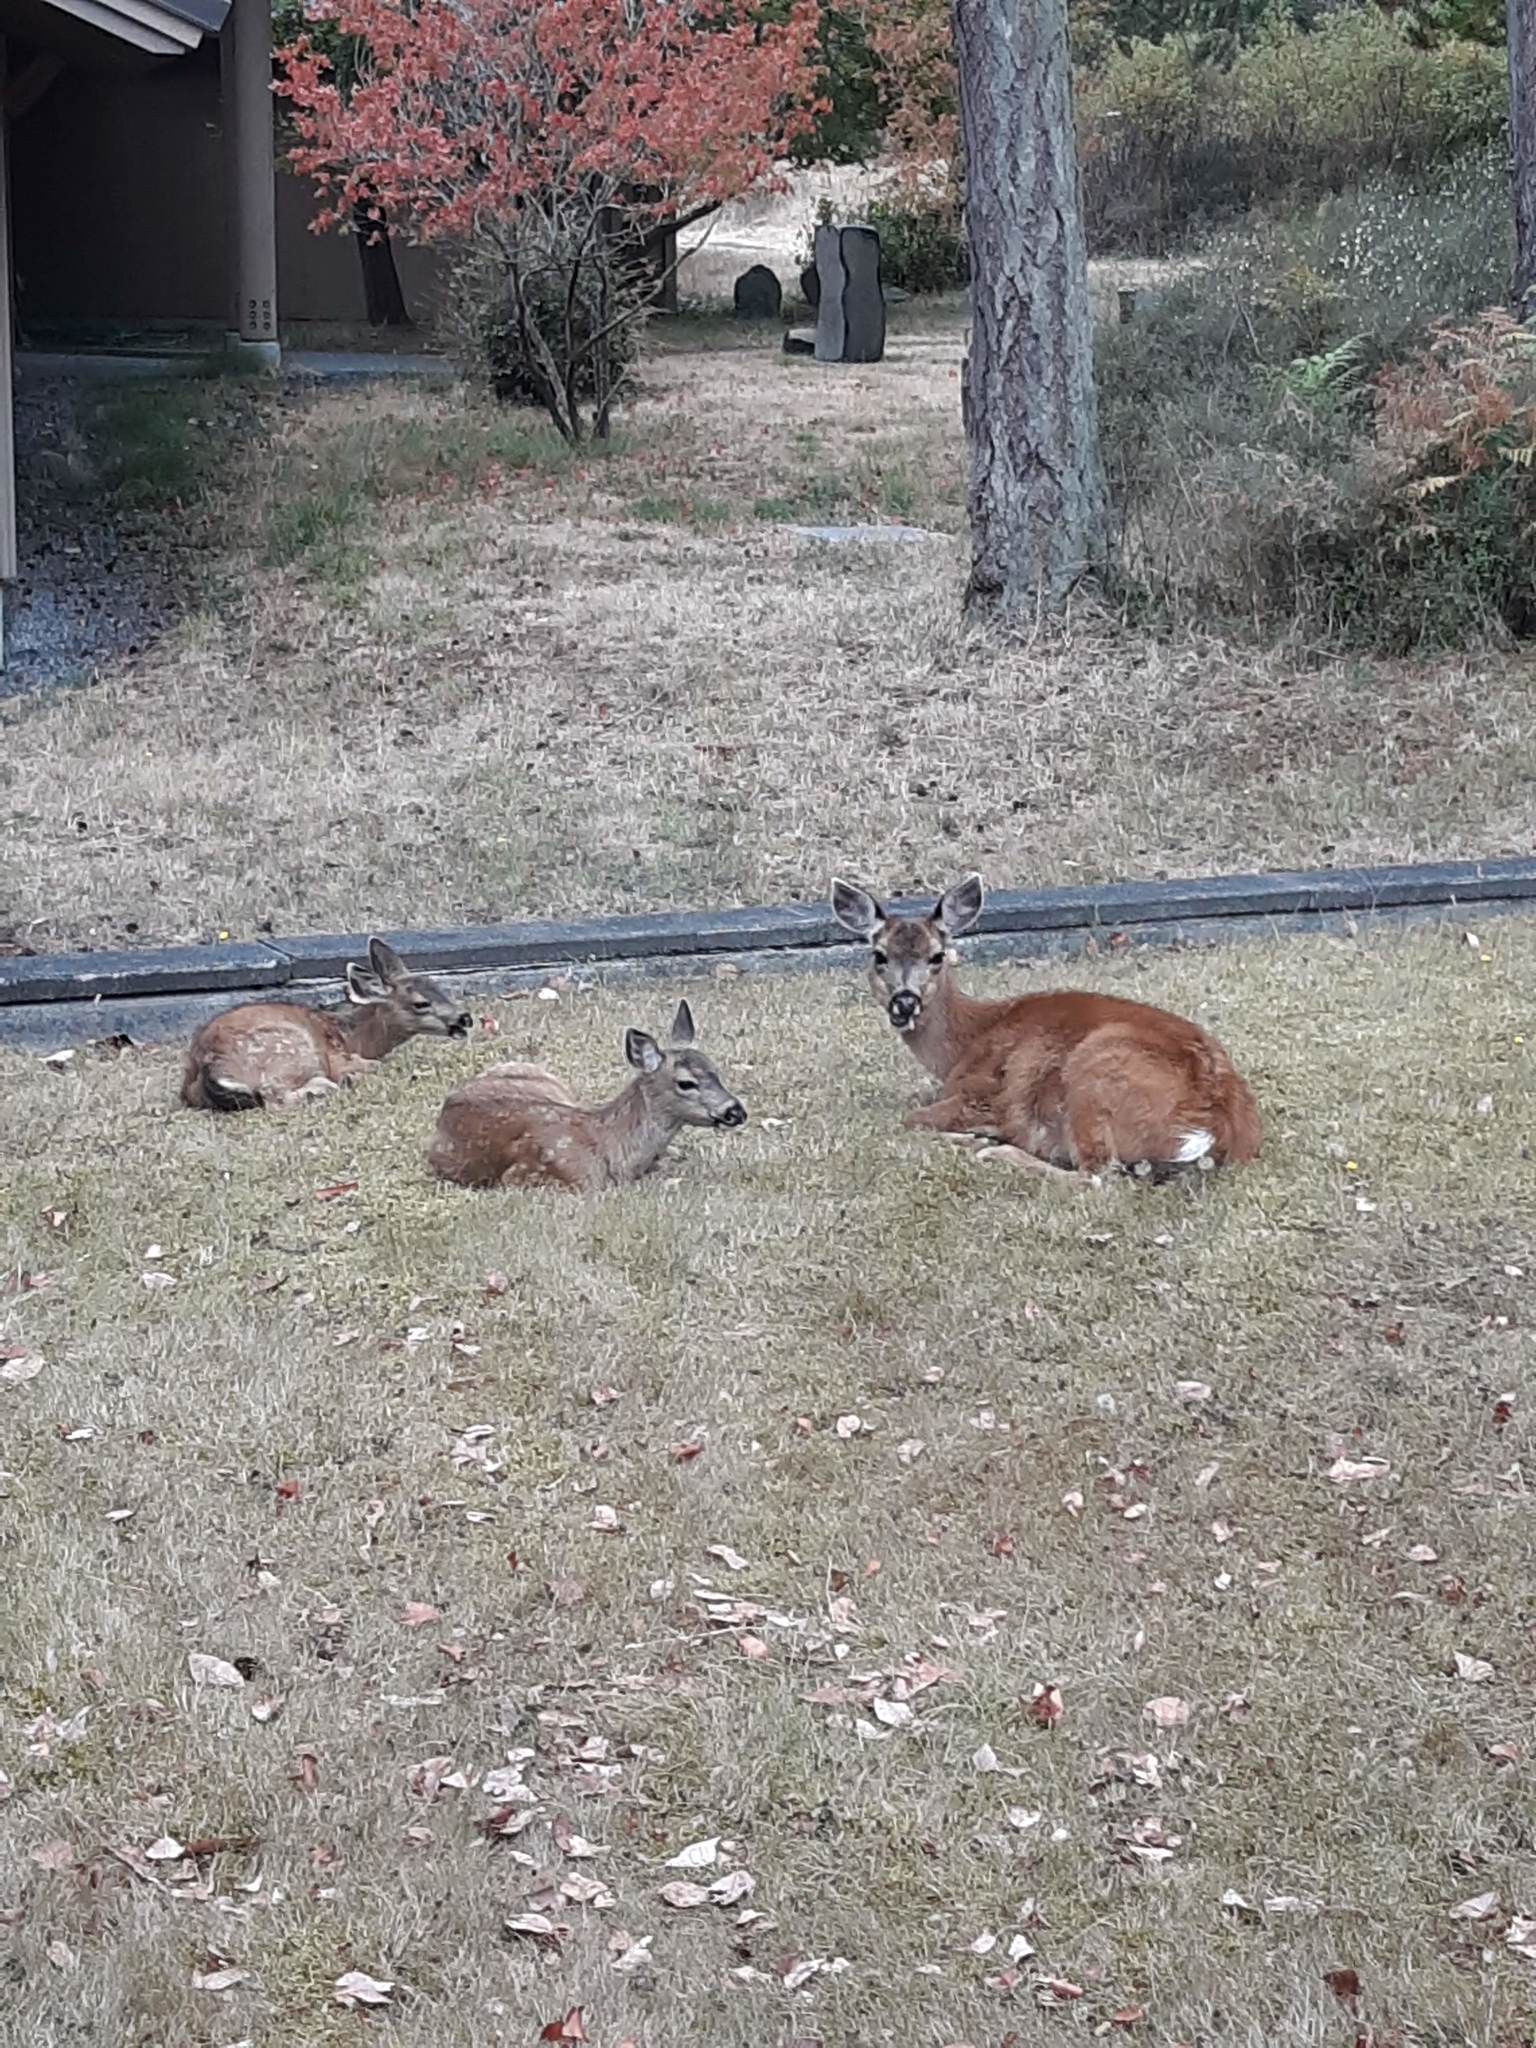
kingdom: Animalia
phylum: Chordata
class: Mammalia
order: Artiodactyla
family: Cervidae
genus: Odocoileus
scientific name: Odocoileus hemionus
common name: Mule deer
